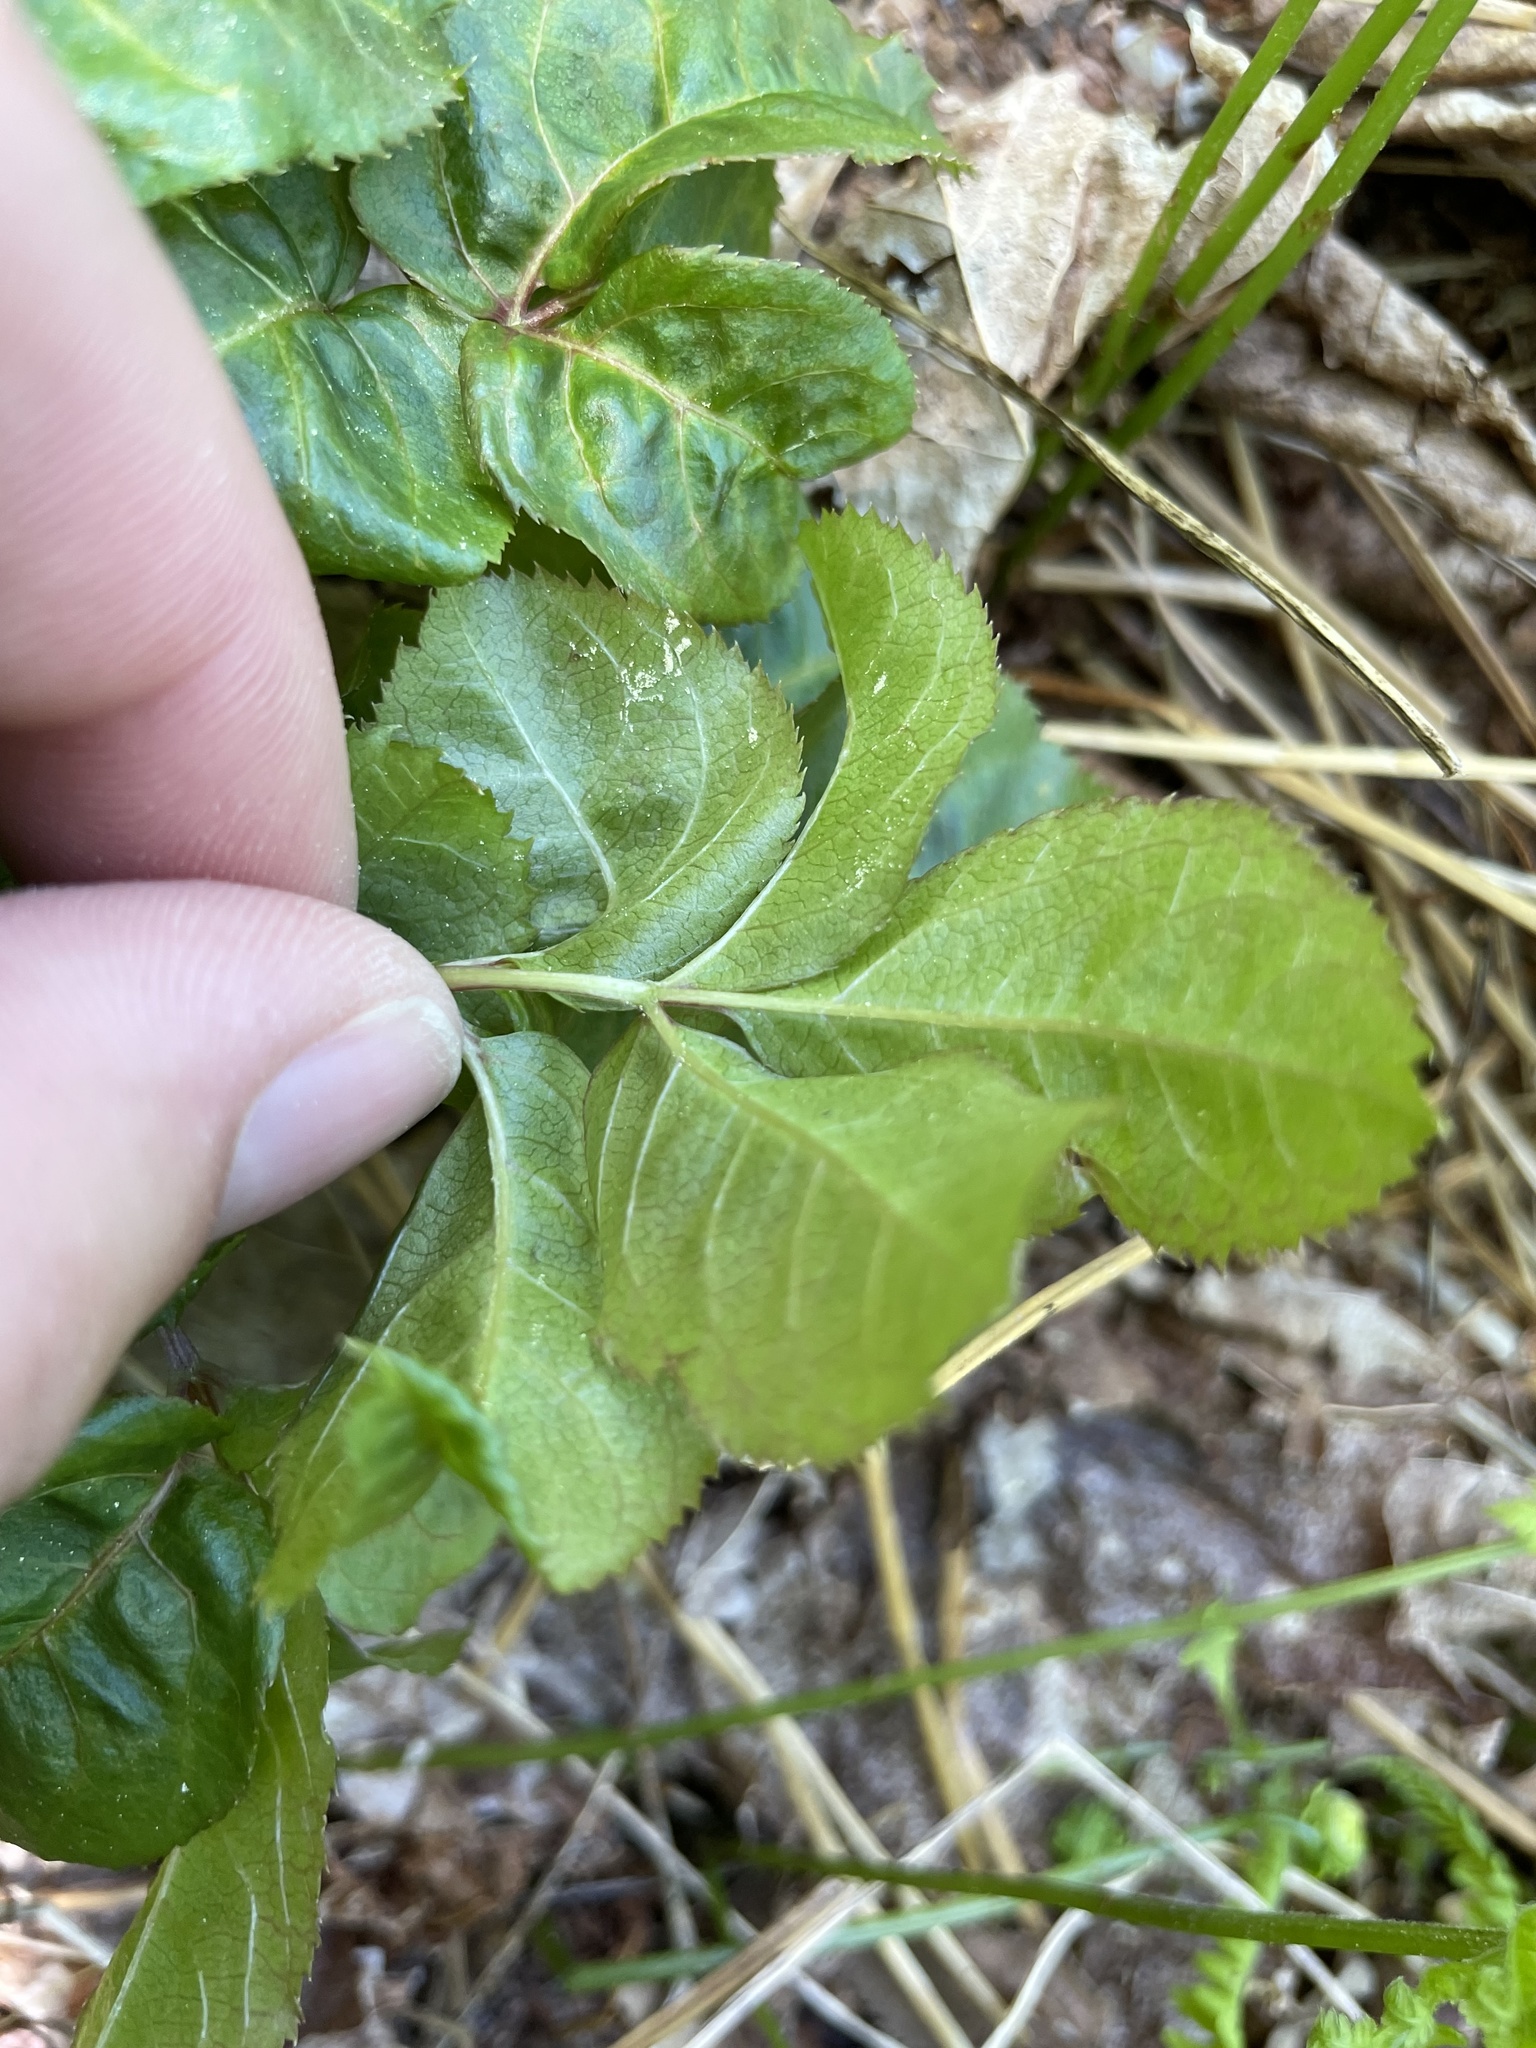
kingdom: Plantae
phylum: Tracheophyta
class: Magnoliopsida
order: Apiales
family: Araliaceae
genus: Aralia
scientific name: Aralia nudicaulis
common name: Wild sarsaparilla
